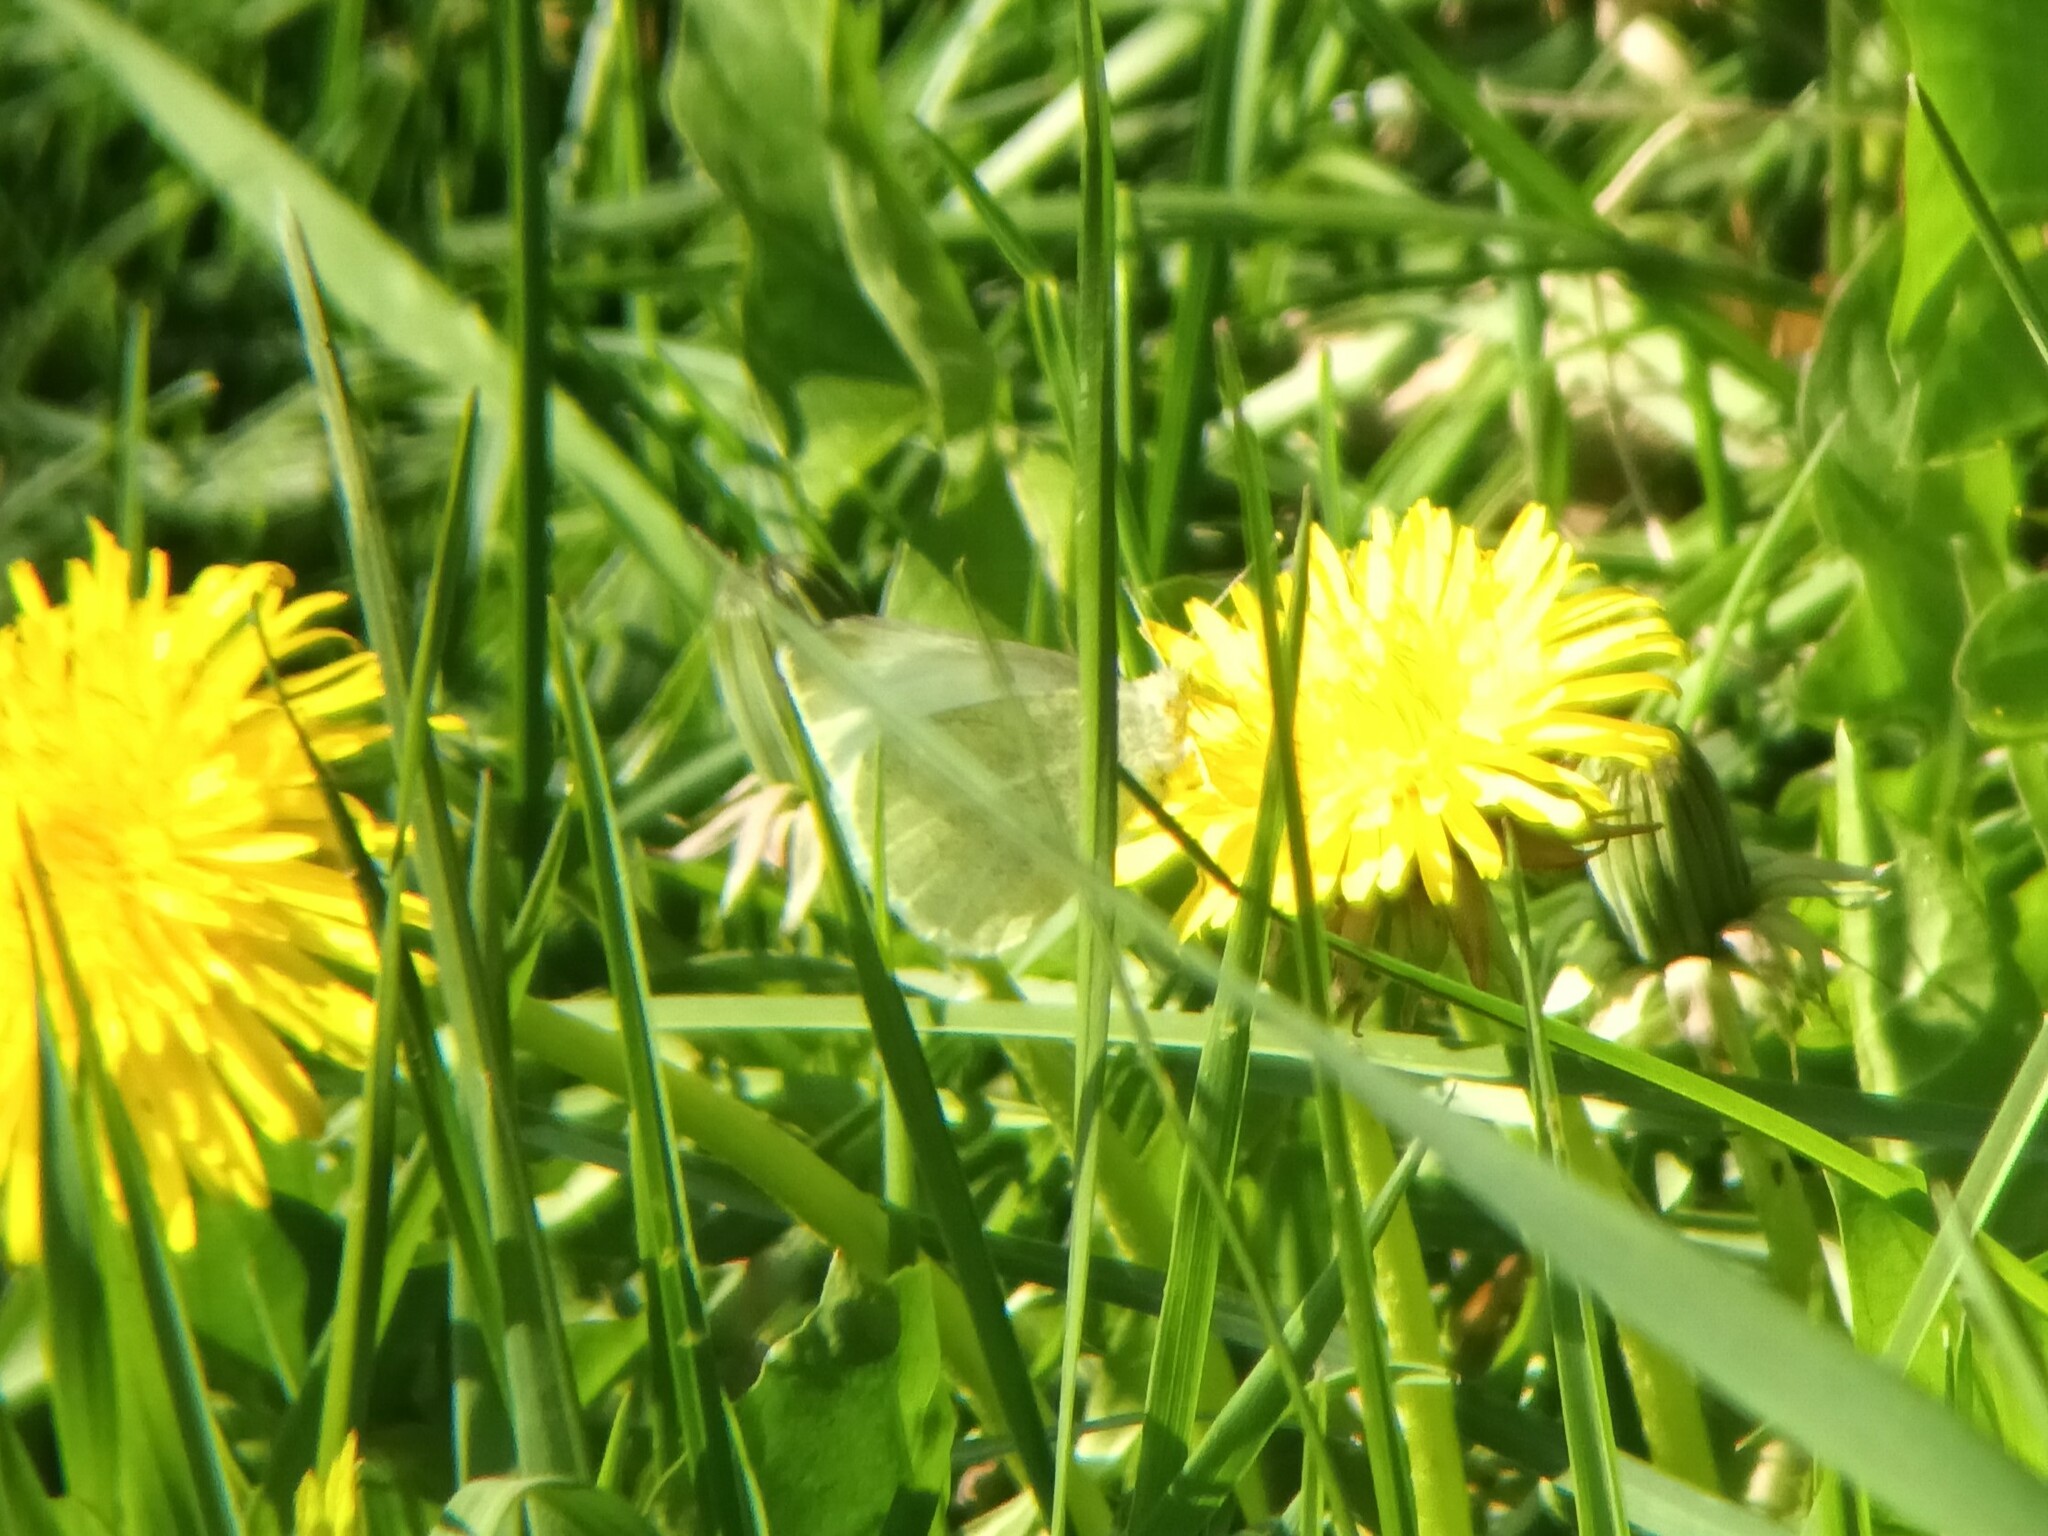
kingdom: Animalia
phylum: Arthropoda
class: Insecta
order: Lepidoptera
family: Pieridae
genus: Pieris
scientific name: Pieris rapae
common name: Small white
